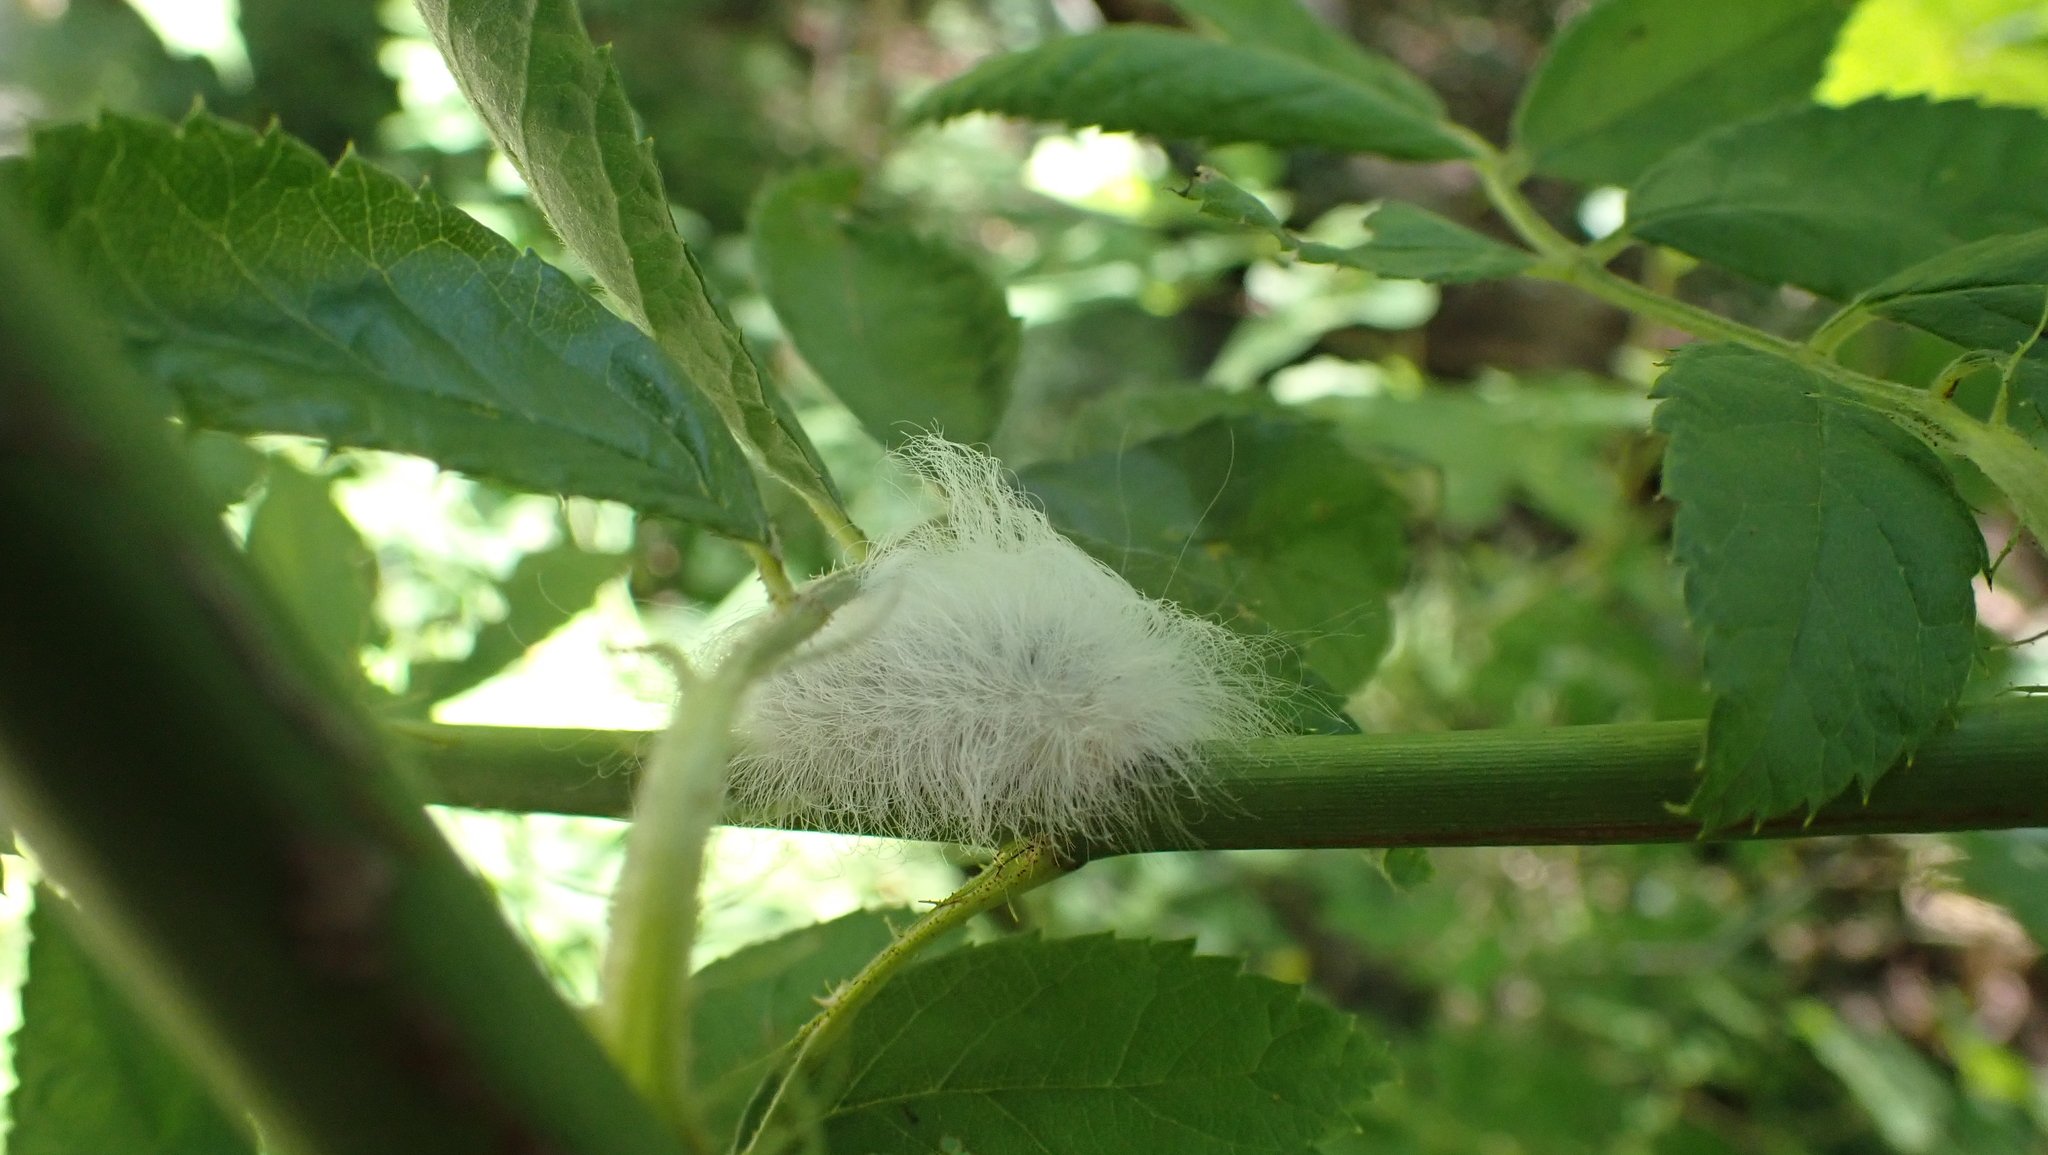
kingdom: Animalia
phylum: Arthropoda
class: Insecta
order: Lepidoptera
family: Megalopygidae
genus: Megalopyge
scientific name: Megalopyge crispata
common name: Black-waved flannel moth
